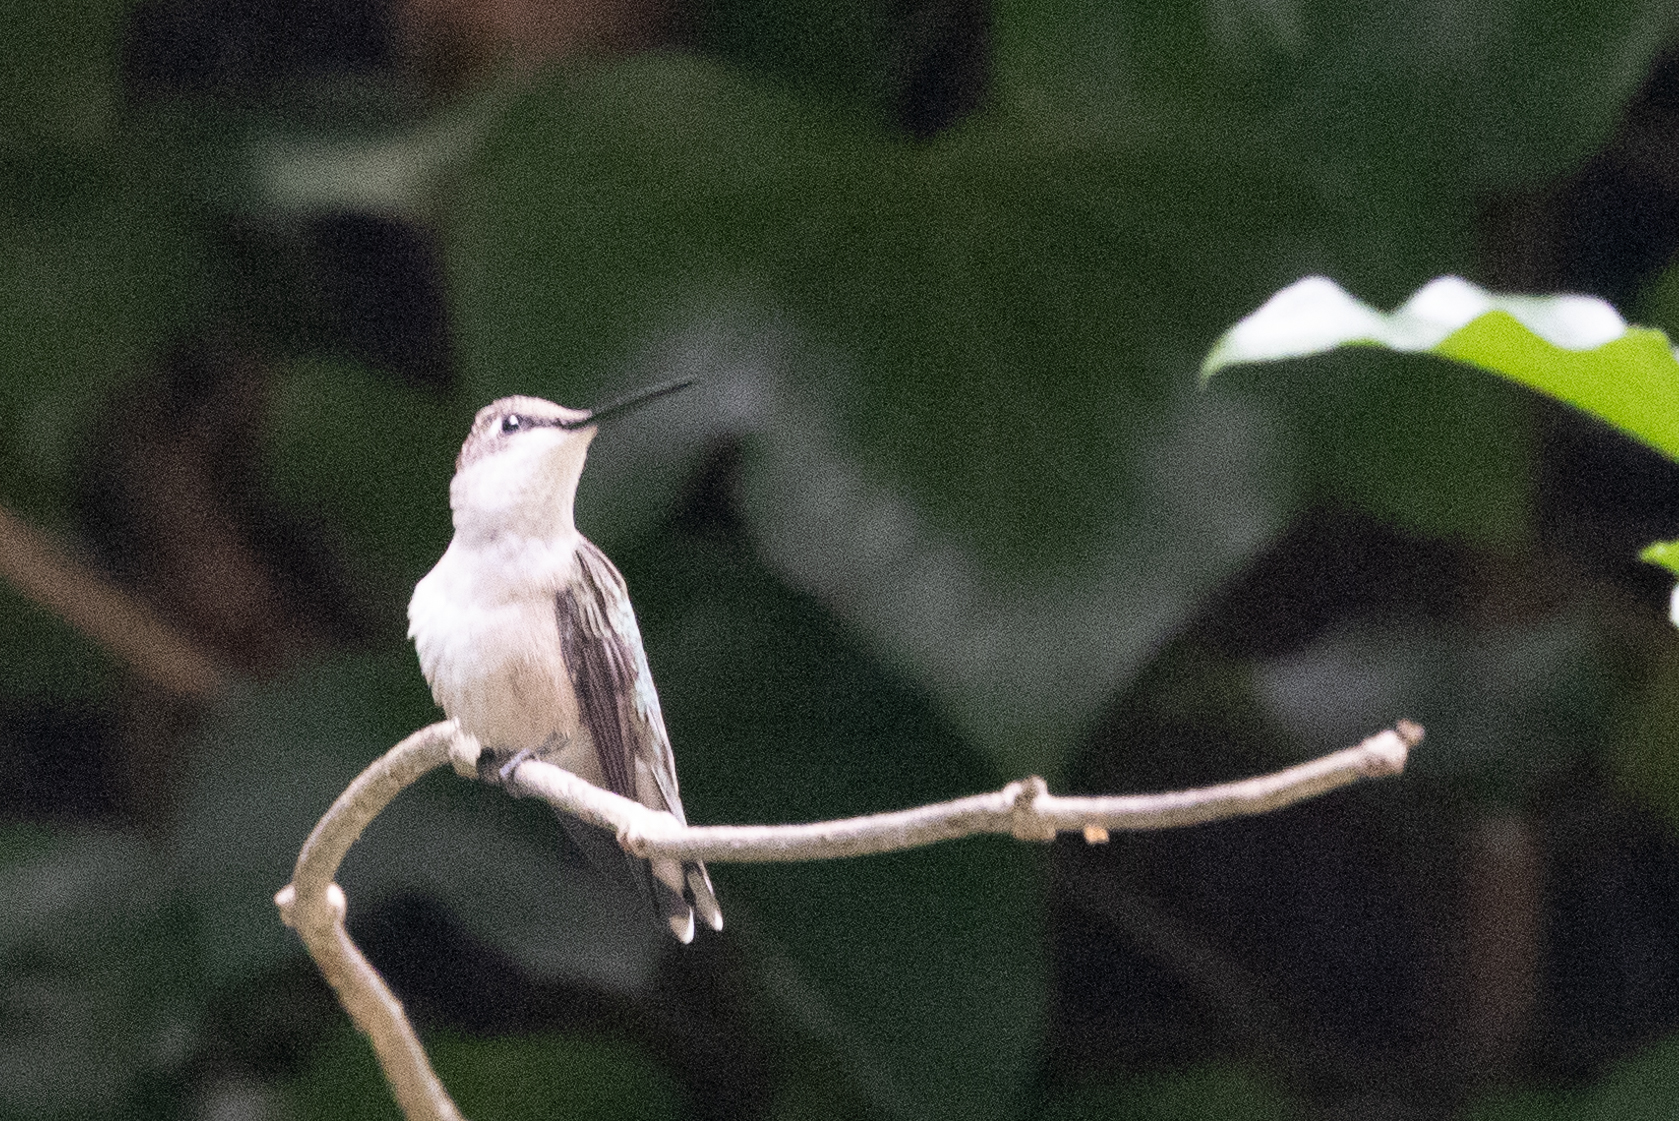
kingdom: Animalia
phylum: Chordata
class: Aves
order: Apodiformes
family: Trochilidae
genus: Archilochus
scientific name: Archilochus colubris
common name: Ruby-throated hummingbird
